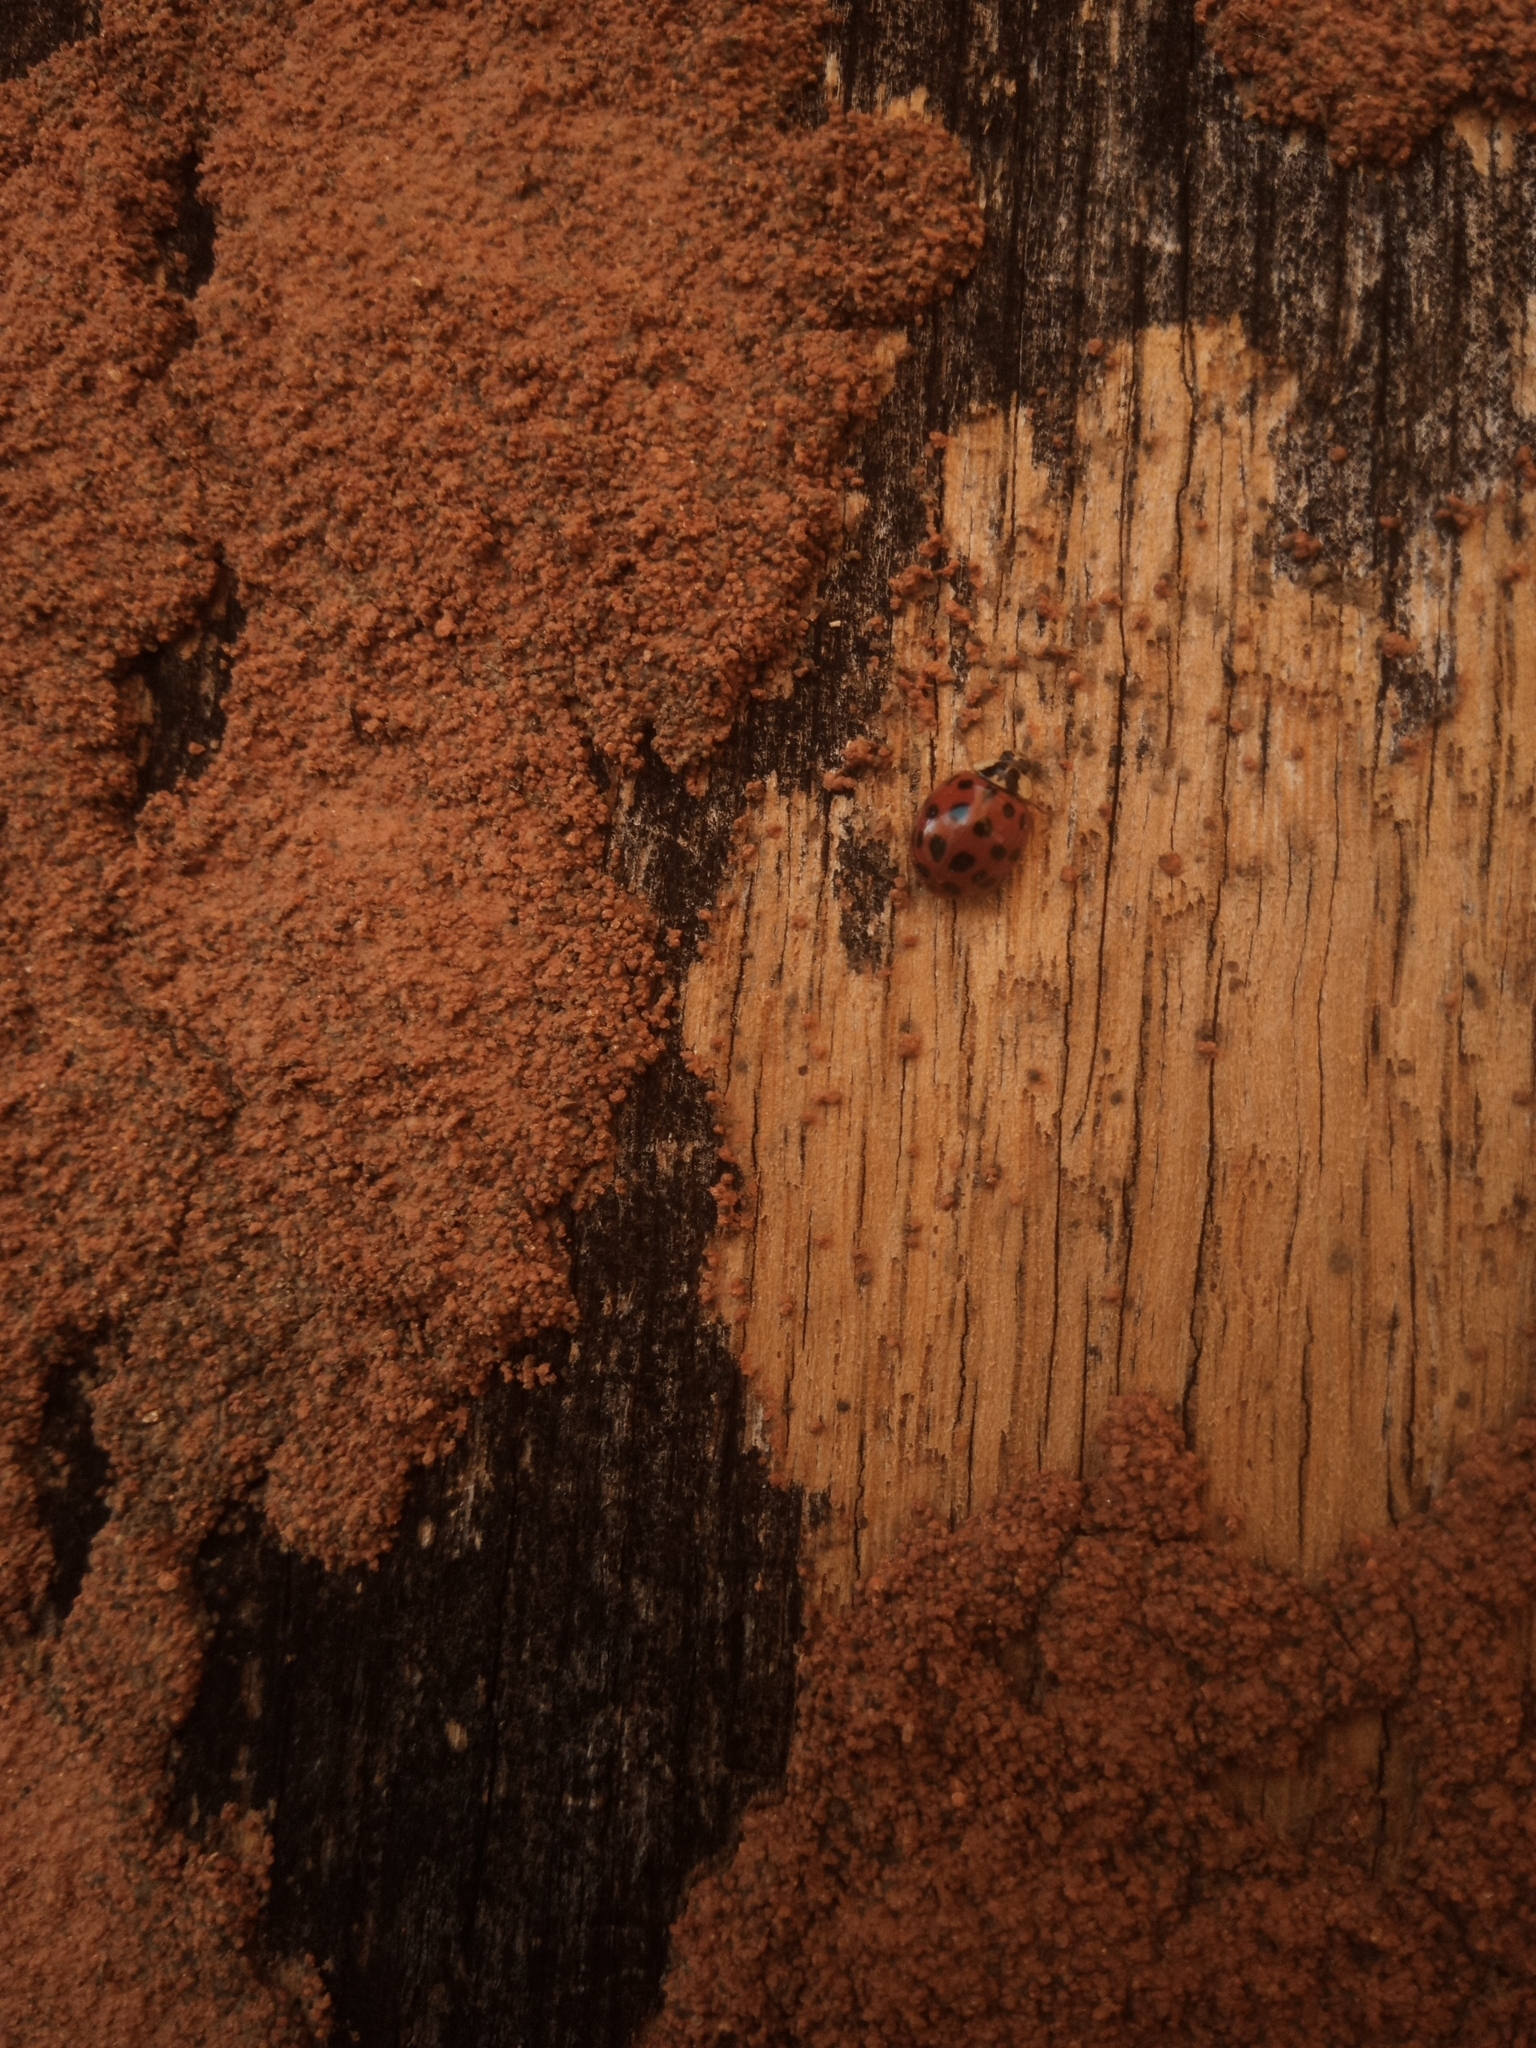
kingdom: Animalia
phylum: Arthropoda
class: Insecta
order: Coleoptera
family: Coccinellidae
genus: Harmonia
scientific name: Harmonia axyridis
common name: Harlequin ladybird
